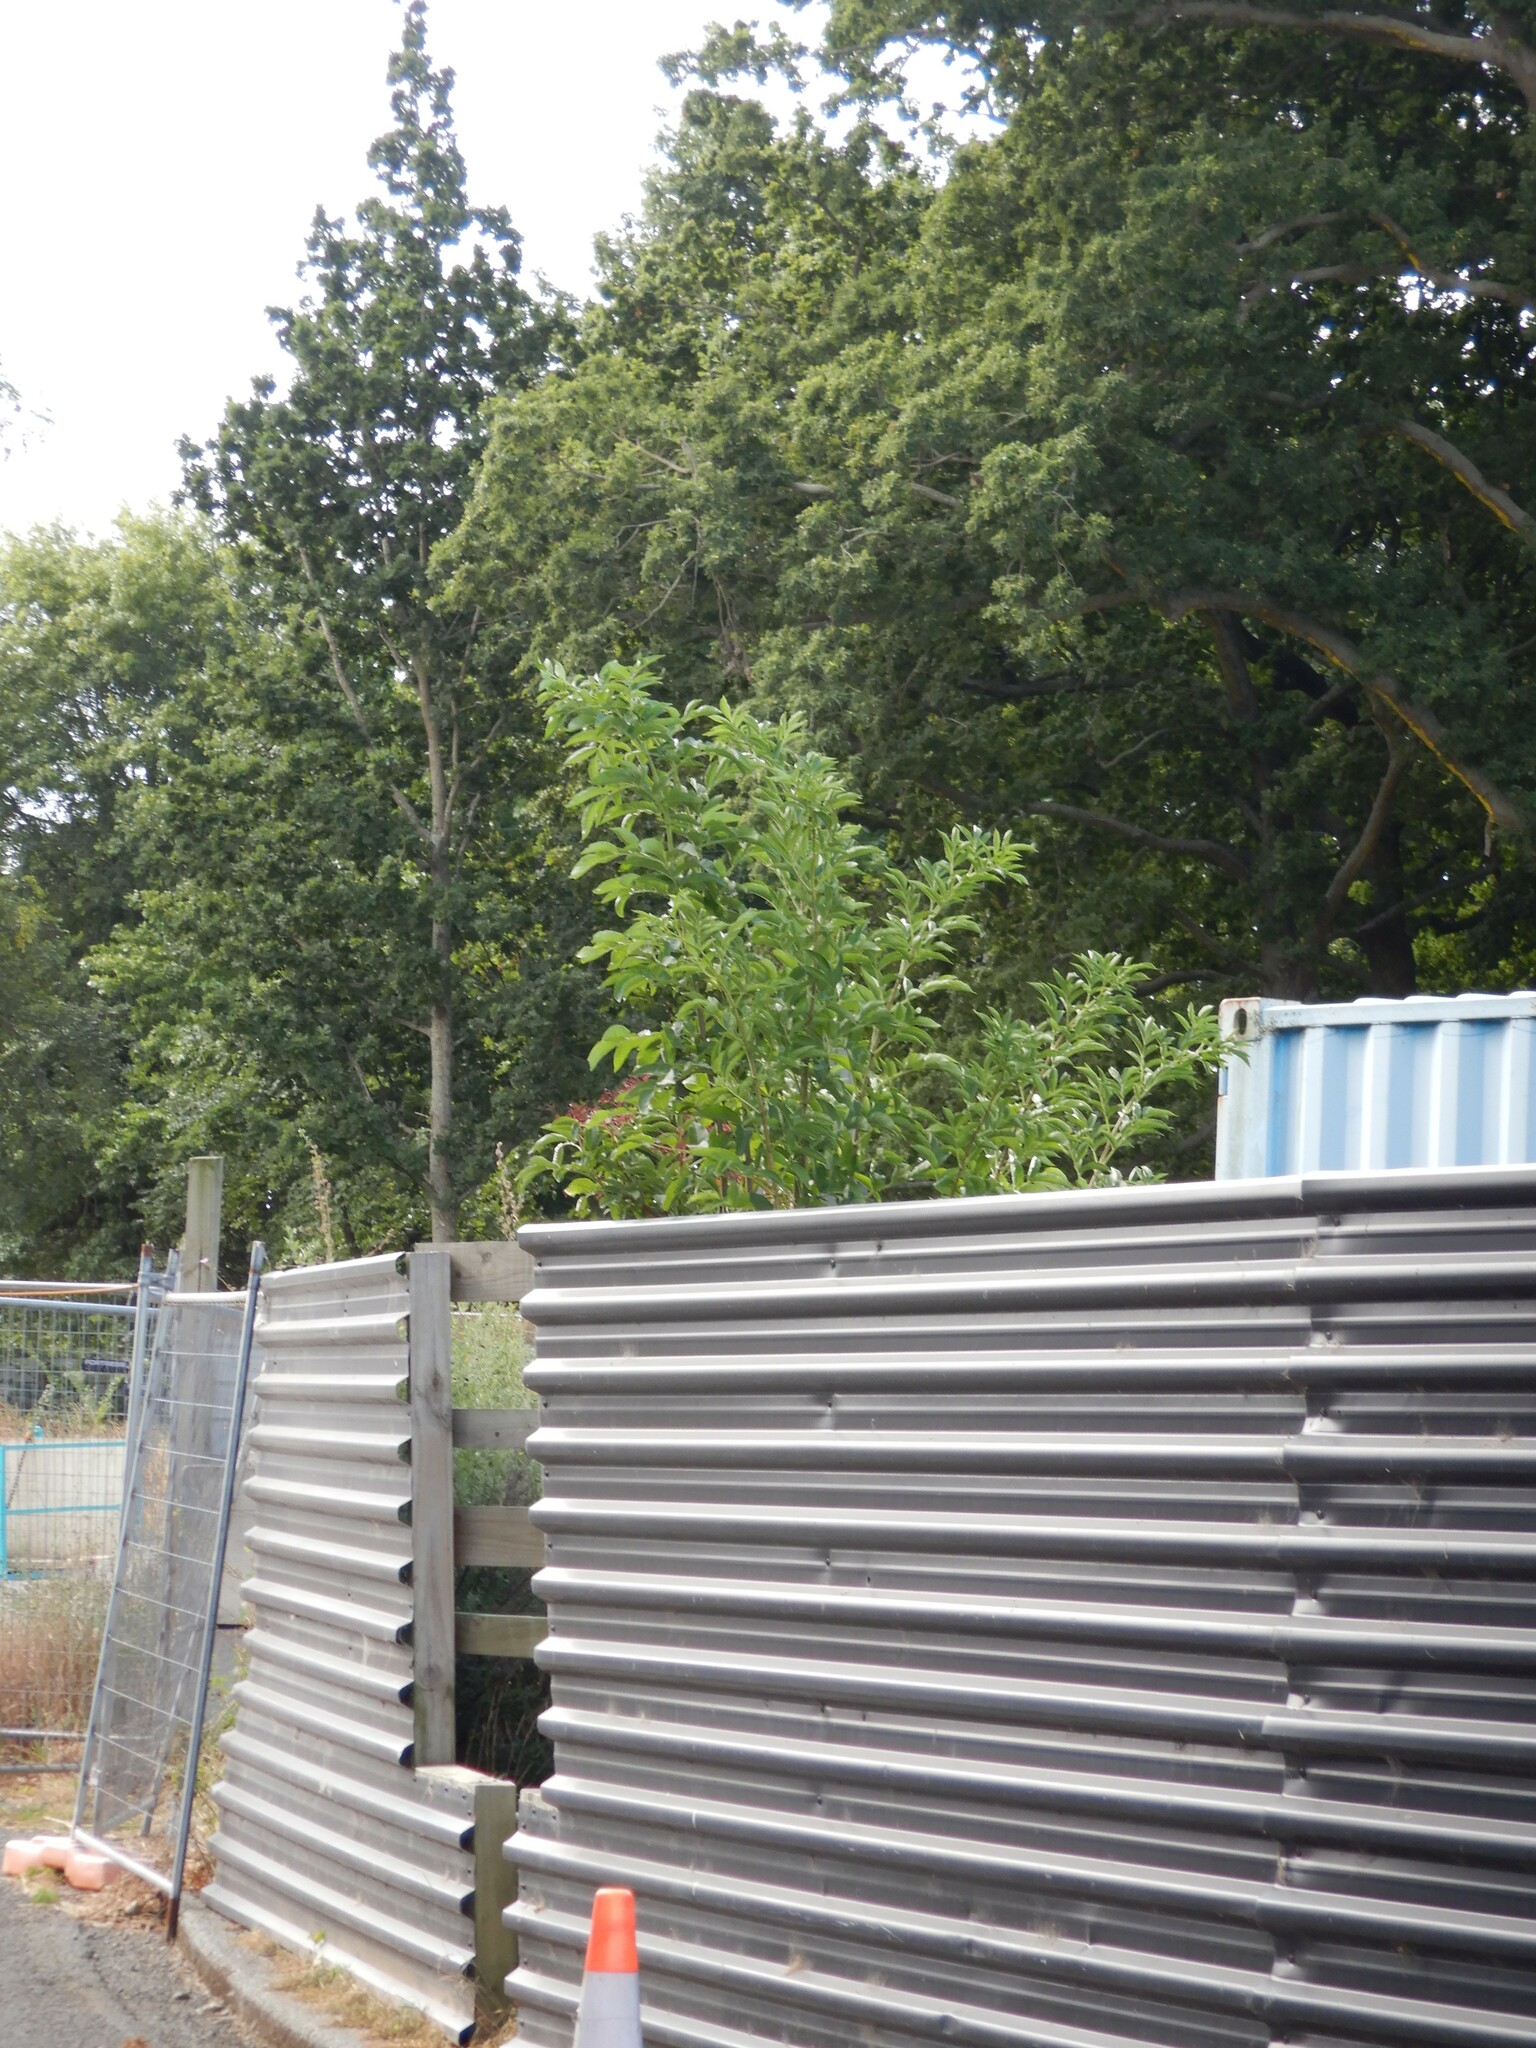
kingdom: Plantae
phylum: Tracheophyta
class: Magnoliopsida
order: Dipsacales
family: Viburnaceae
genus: Sambucus
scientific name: Sambucus nigra
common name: Elder
